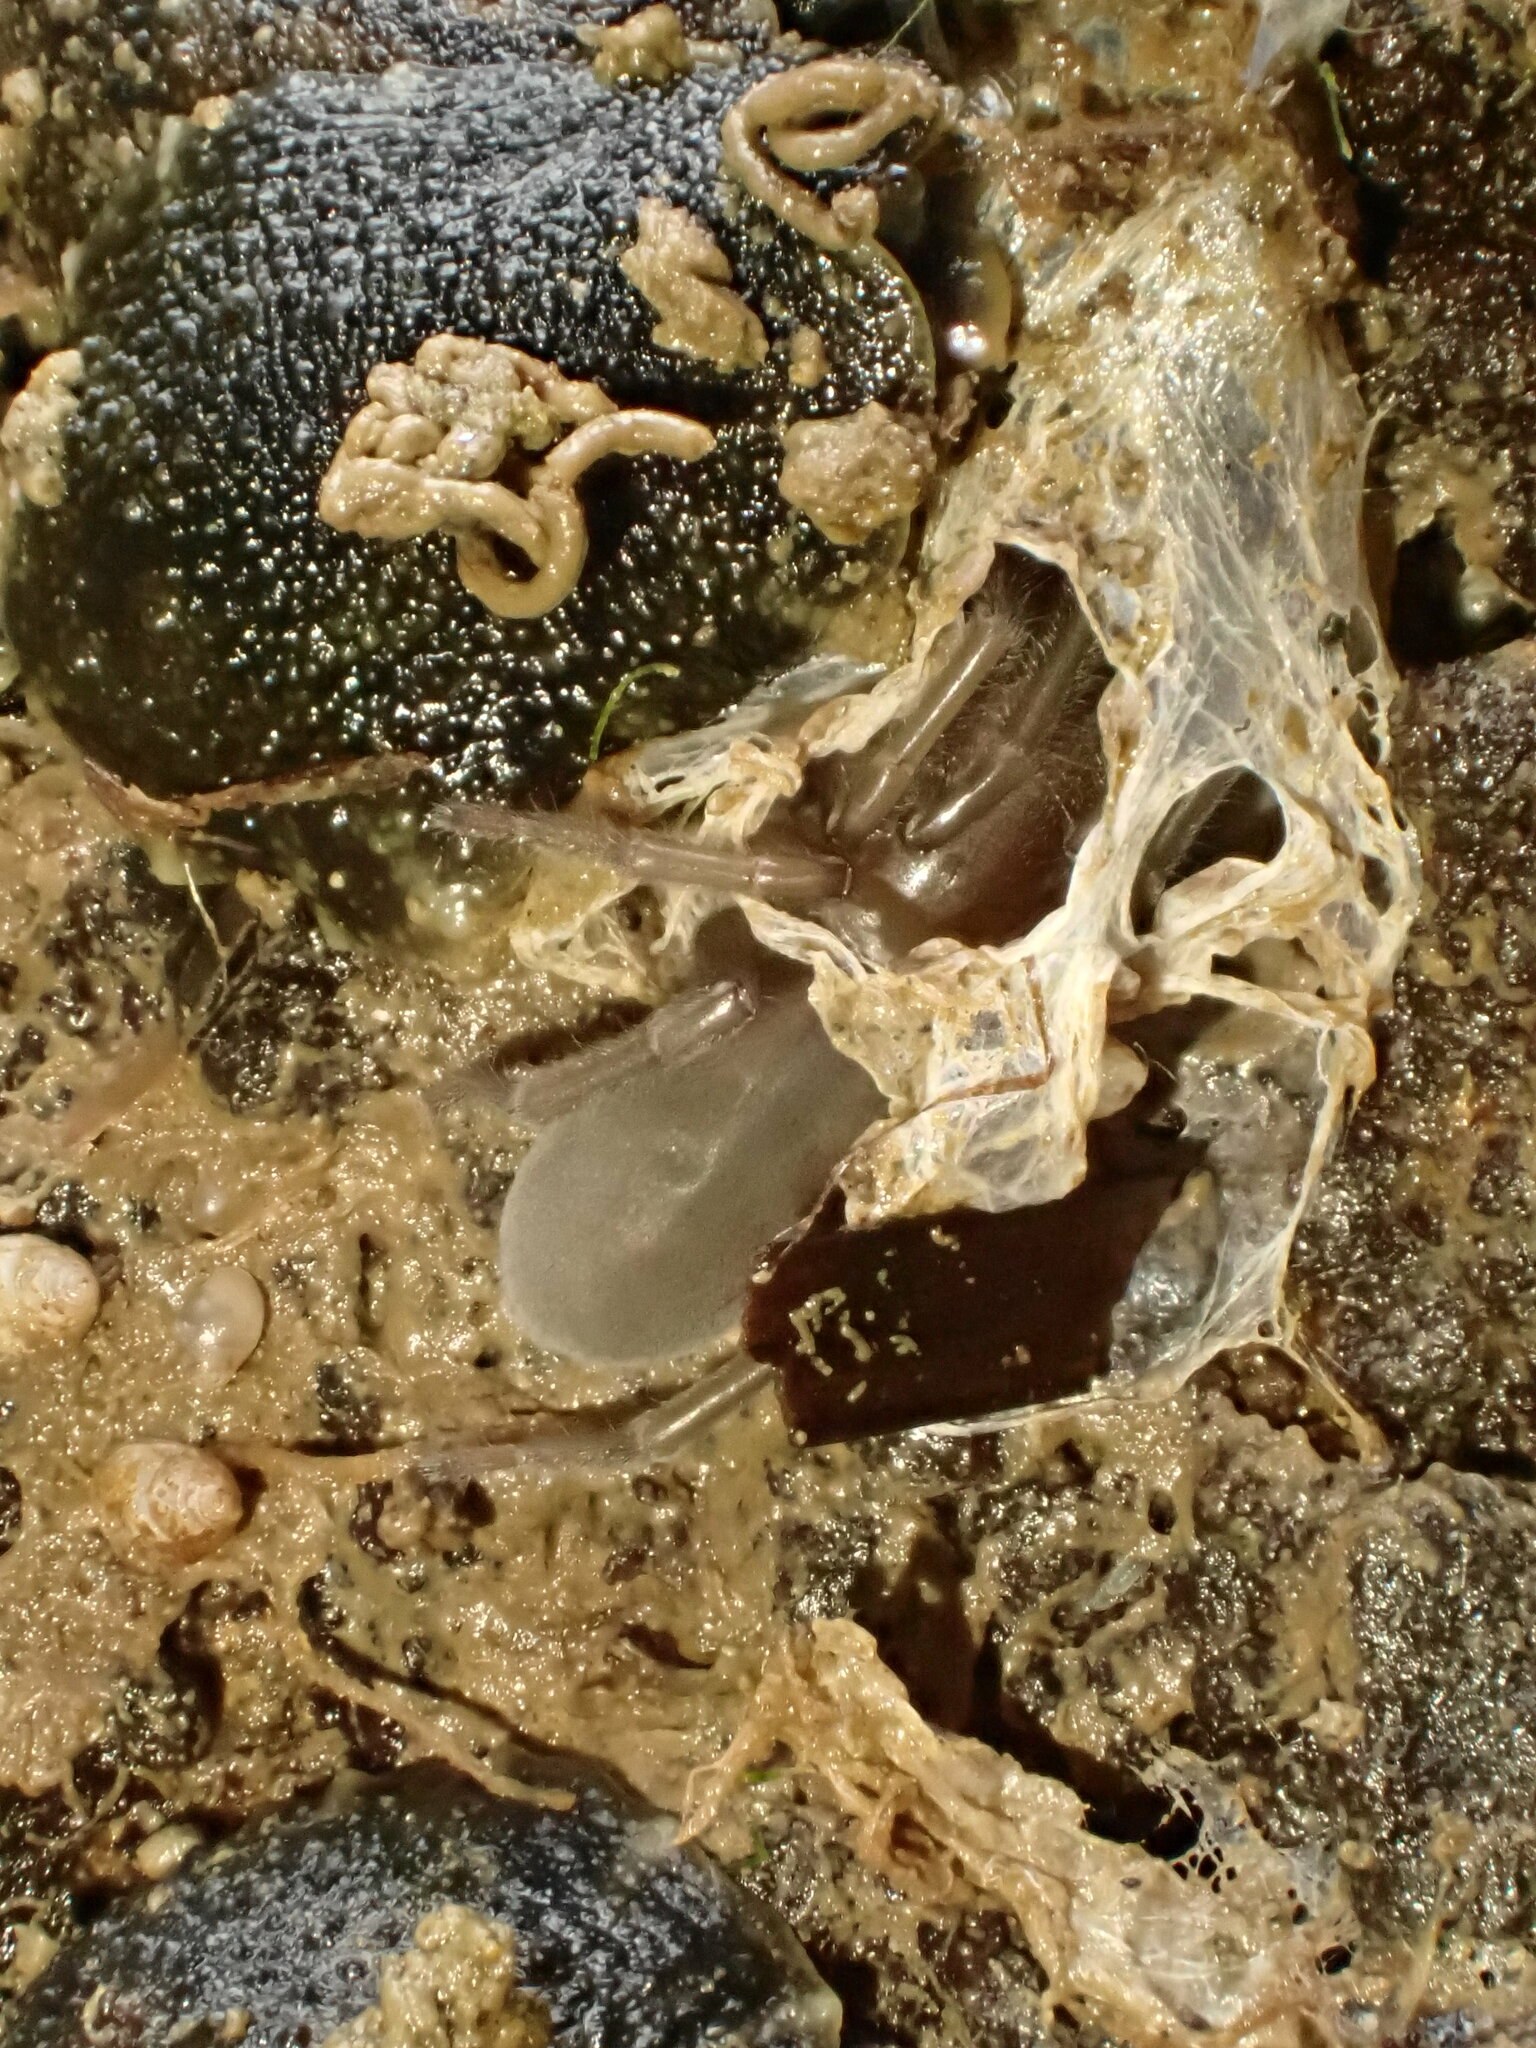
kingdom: Animalia
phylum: Arthropoda
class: Arachnida
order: Araneae
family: Desidae
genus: Desis
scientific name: Desis marina
